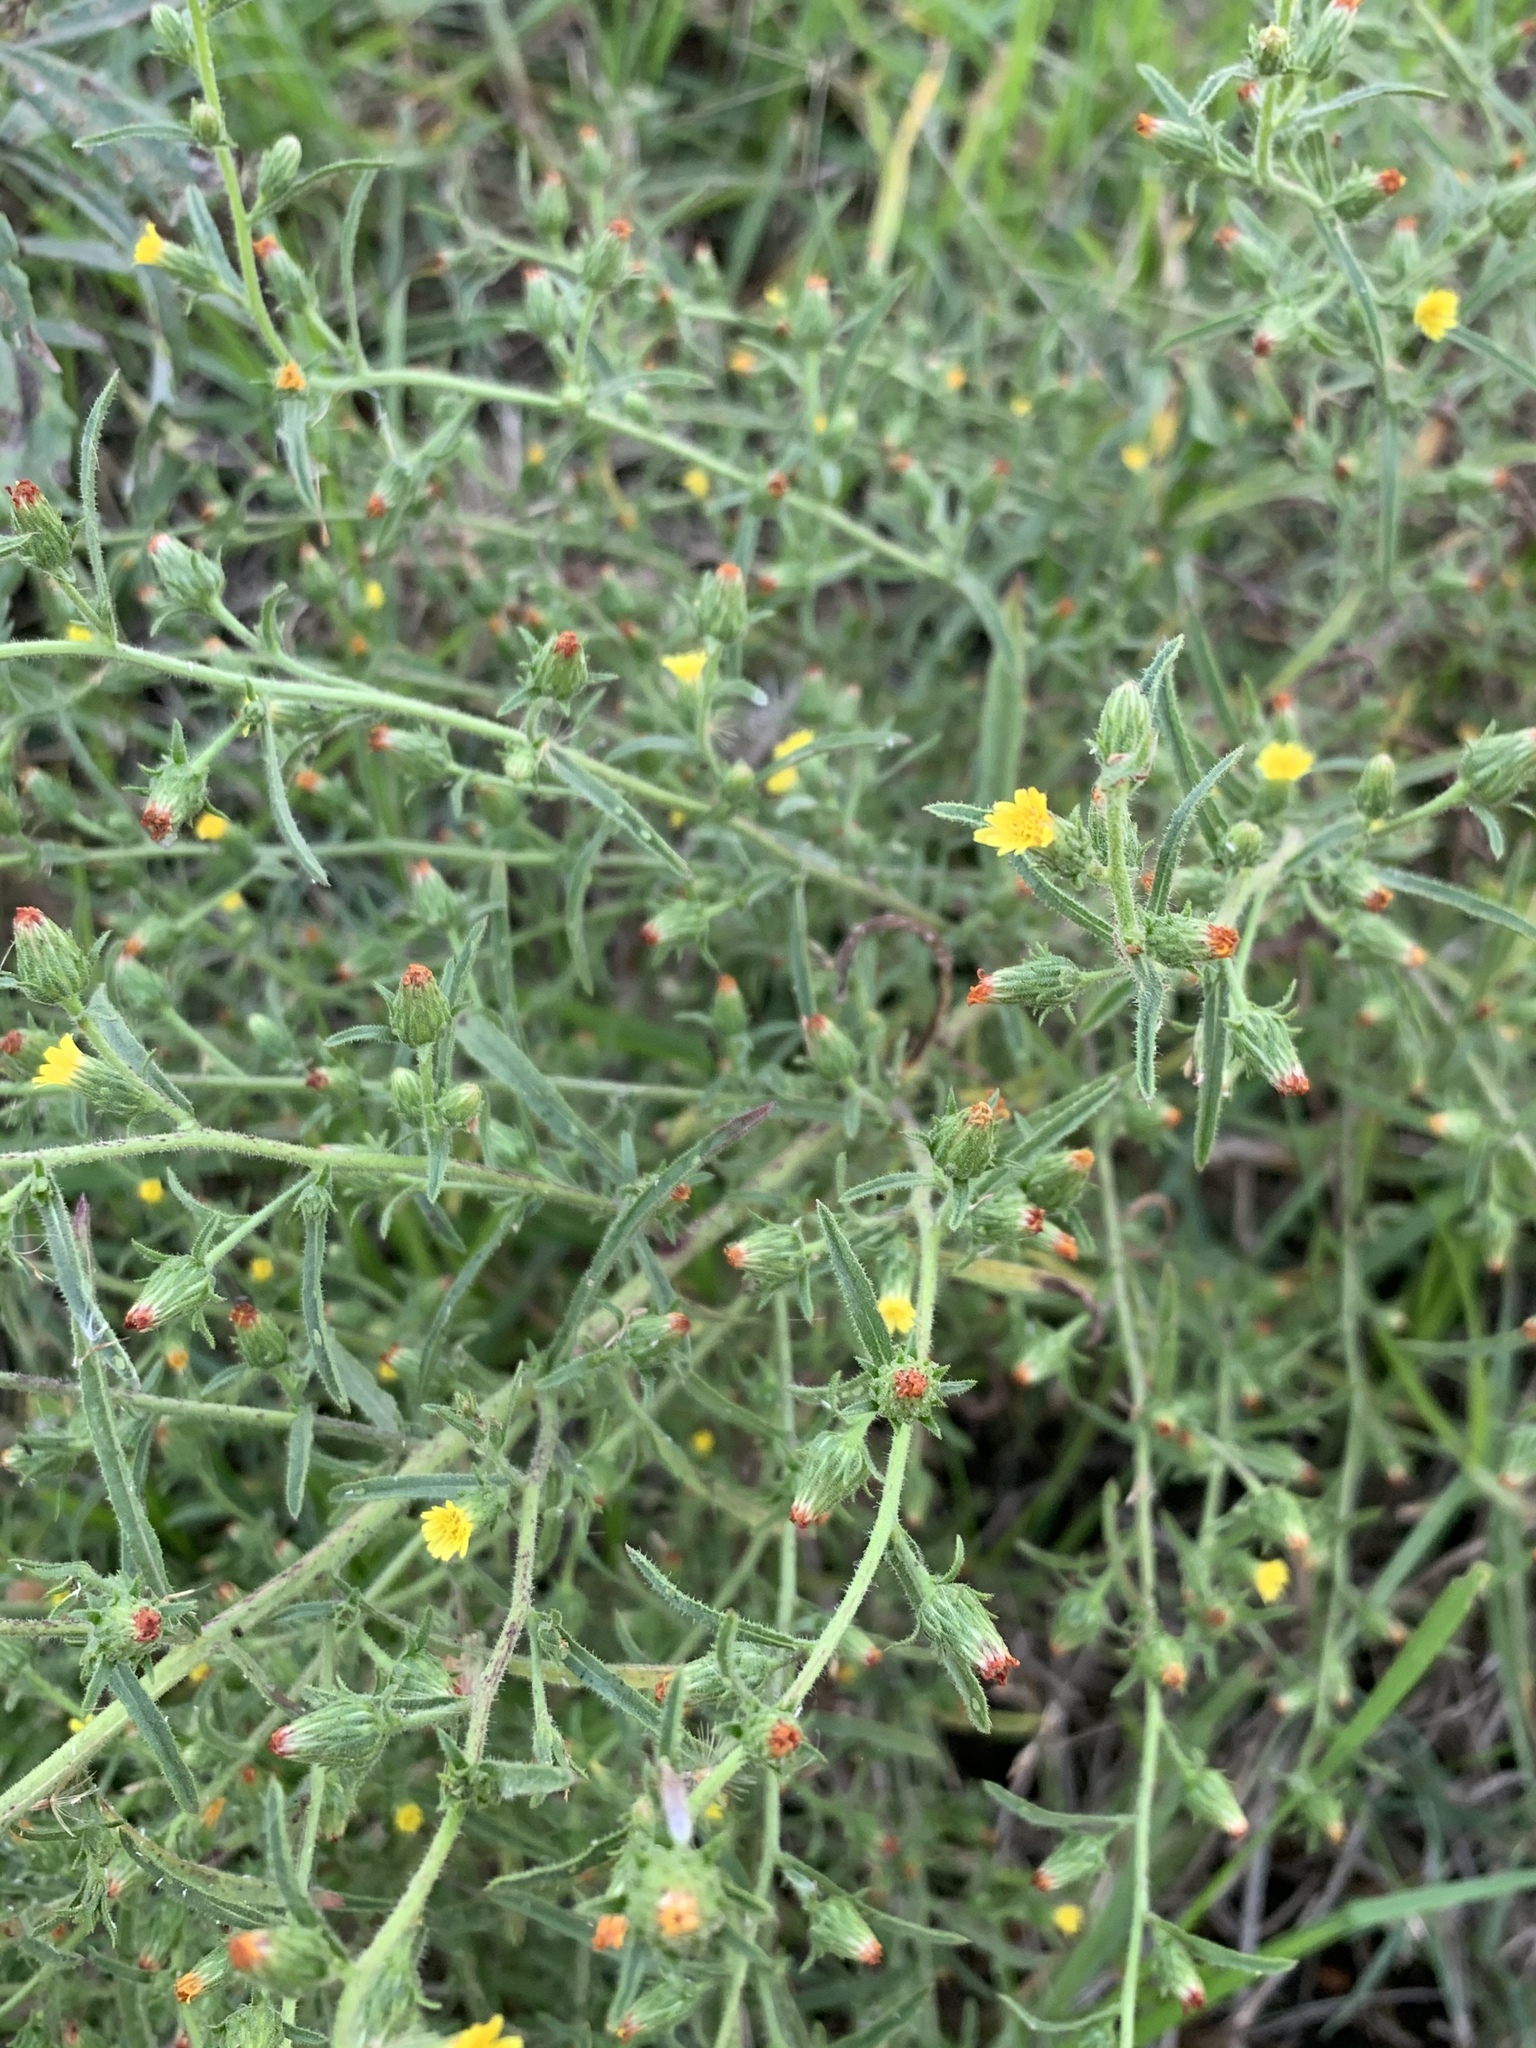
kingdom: Plantae
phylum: Tracheophyta
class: Magnoliopsida
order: Asterales
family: Asteraceae
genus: Dittrichia
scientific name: Dittrichia graveolens
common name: Stinking fleabane
